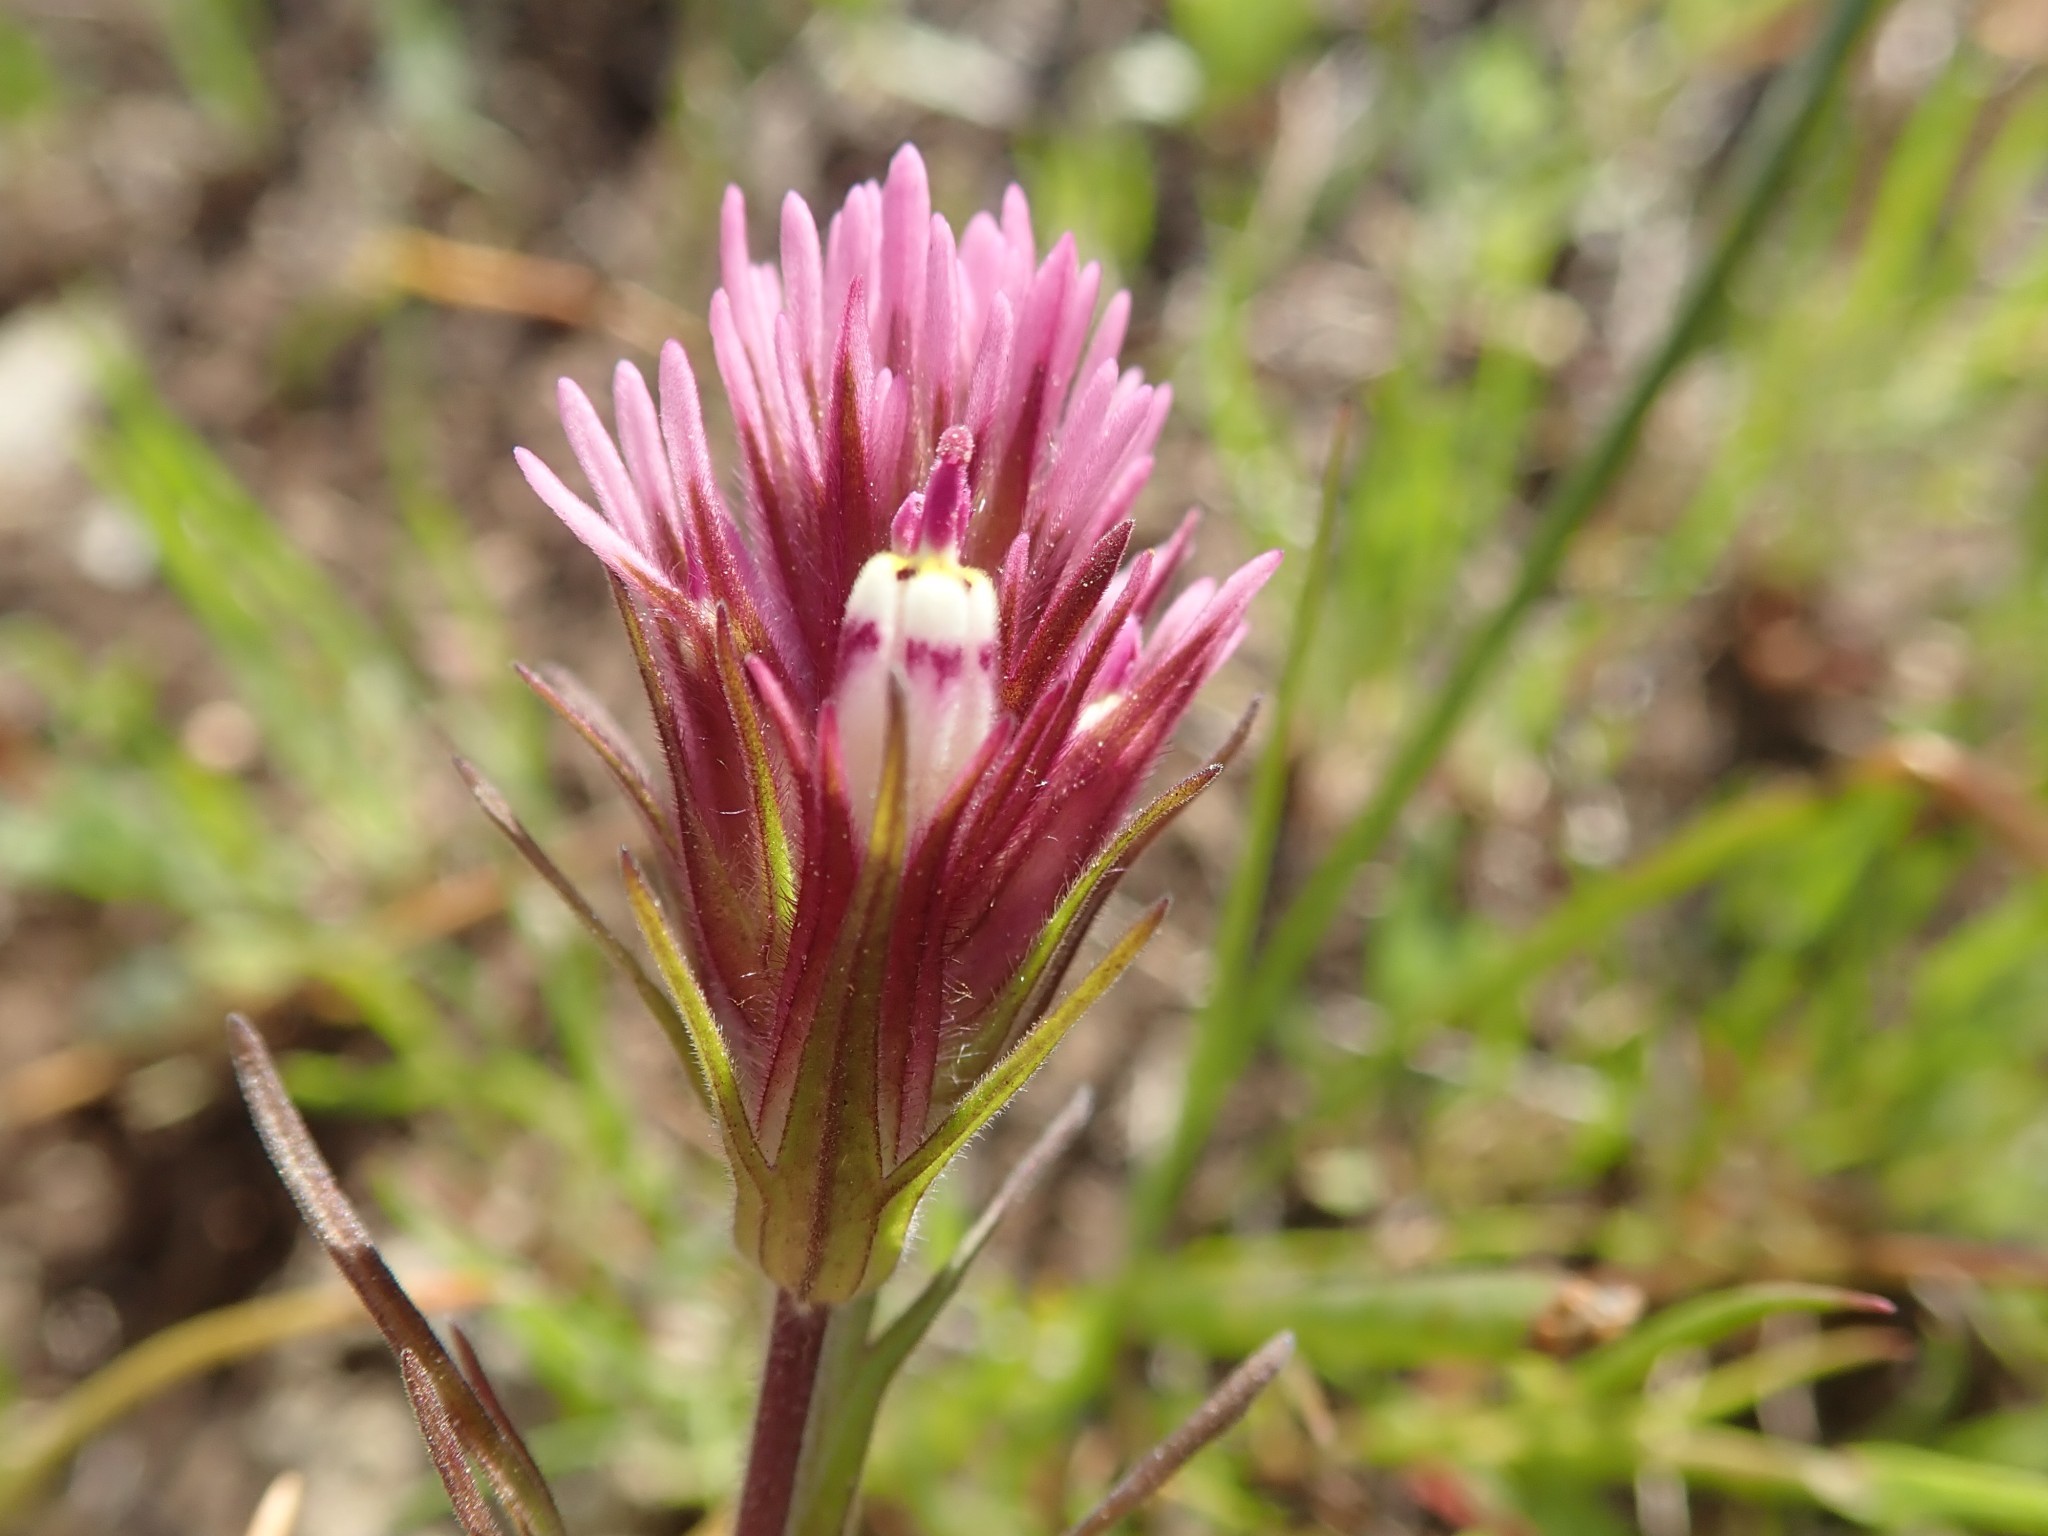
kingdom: Plantae
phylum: Tracheophyta
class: Magnoliopsida
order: Lamiales
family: Orobanchaceae
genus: Castilleja
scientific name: Castilleja densiflora
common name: Dense-flower indian paintbrush
